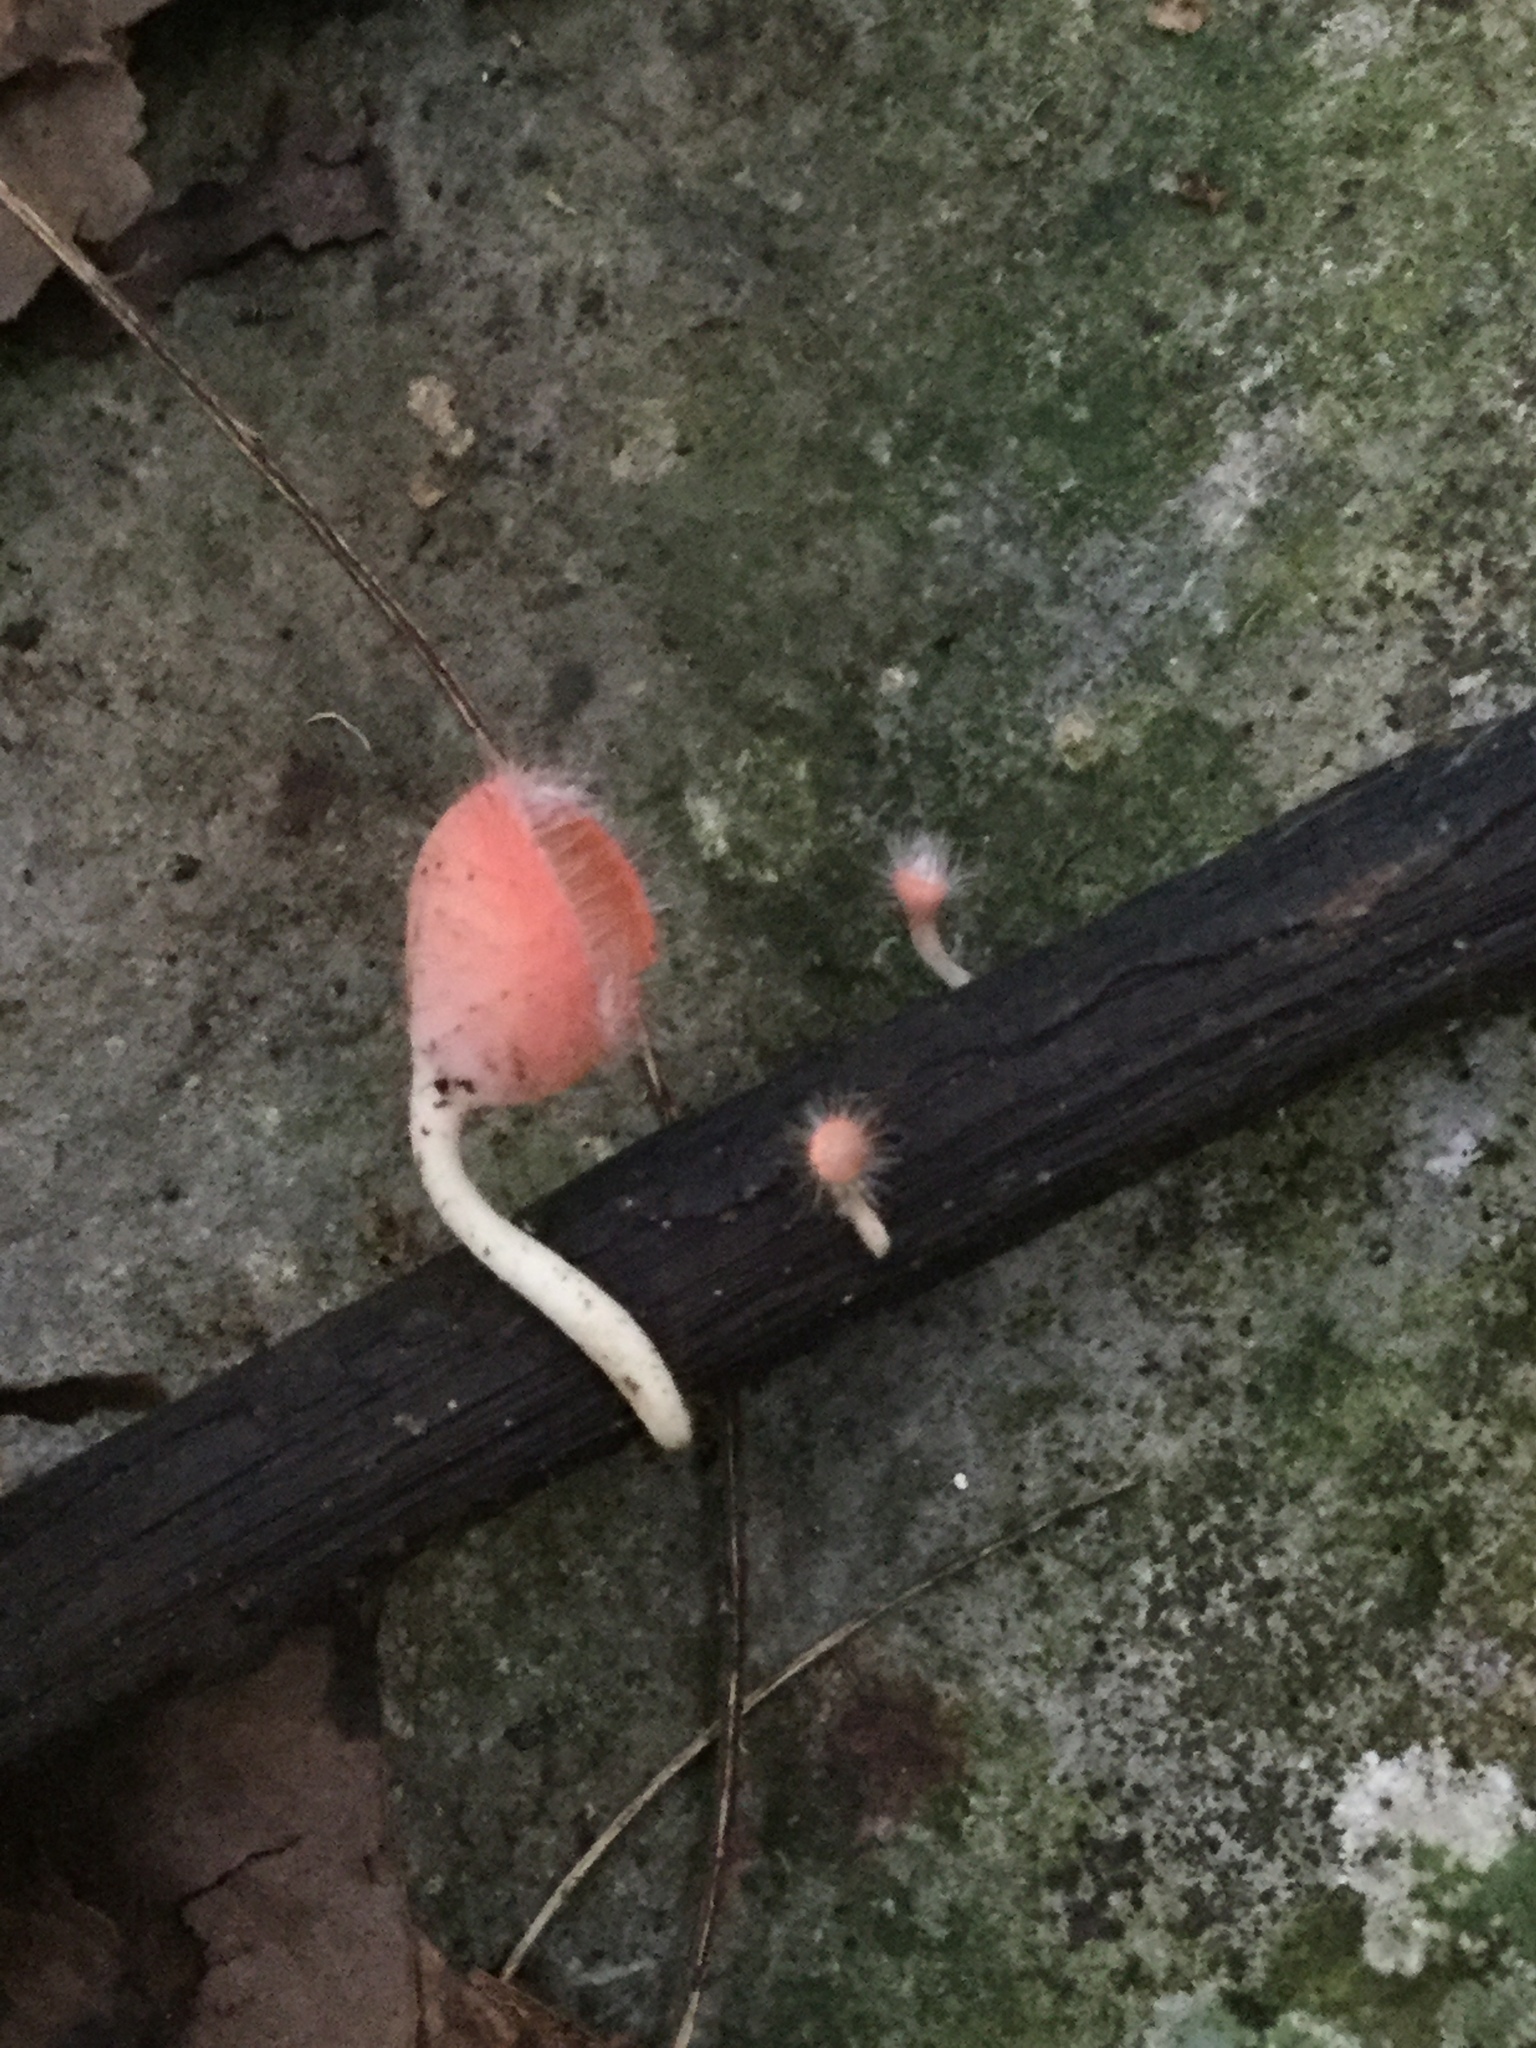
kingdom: Fungi
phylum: Ascomycota
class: Pezizomycetes
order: Pezizales
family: Sarcoscyphaceae
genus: Cookeina
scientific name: Cookeina tricholoma
